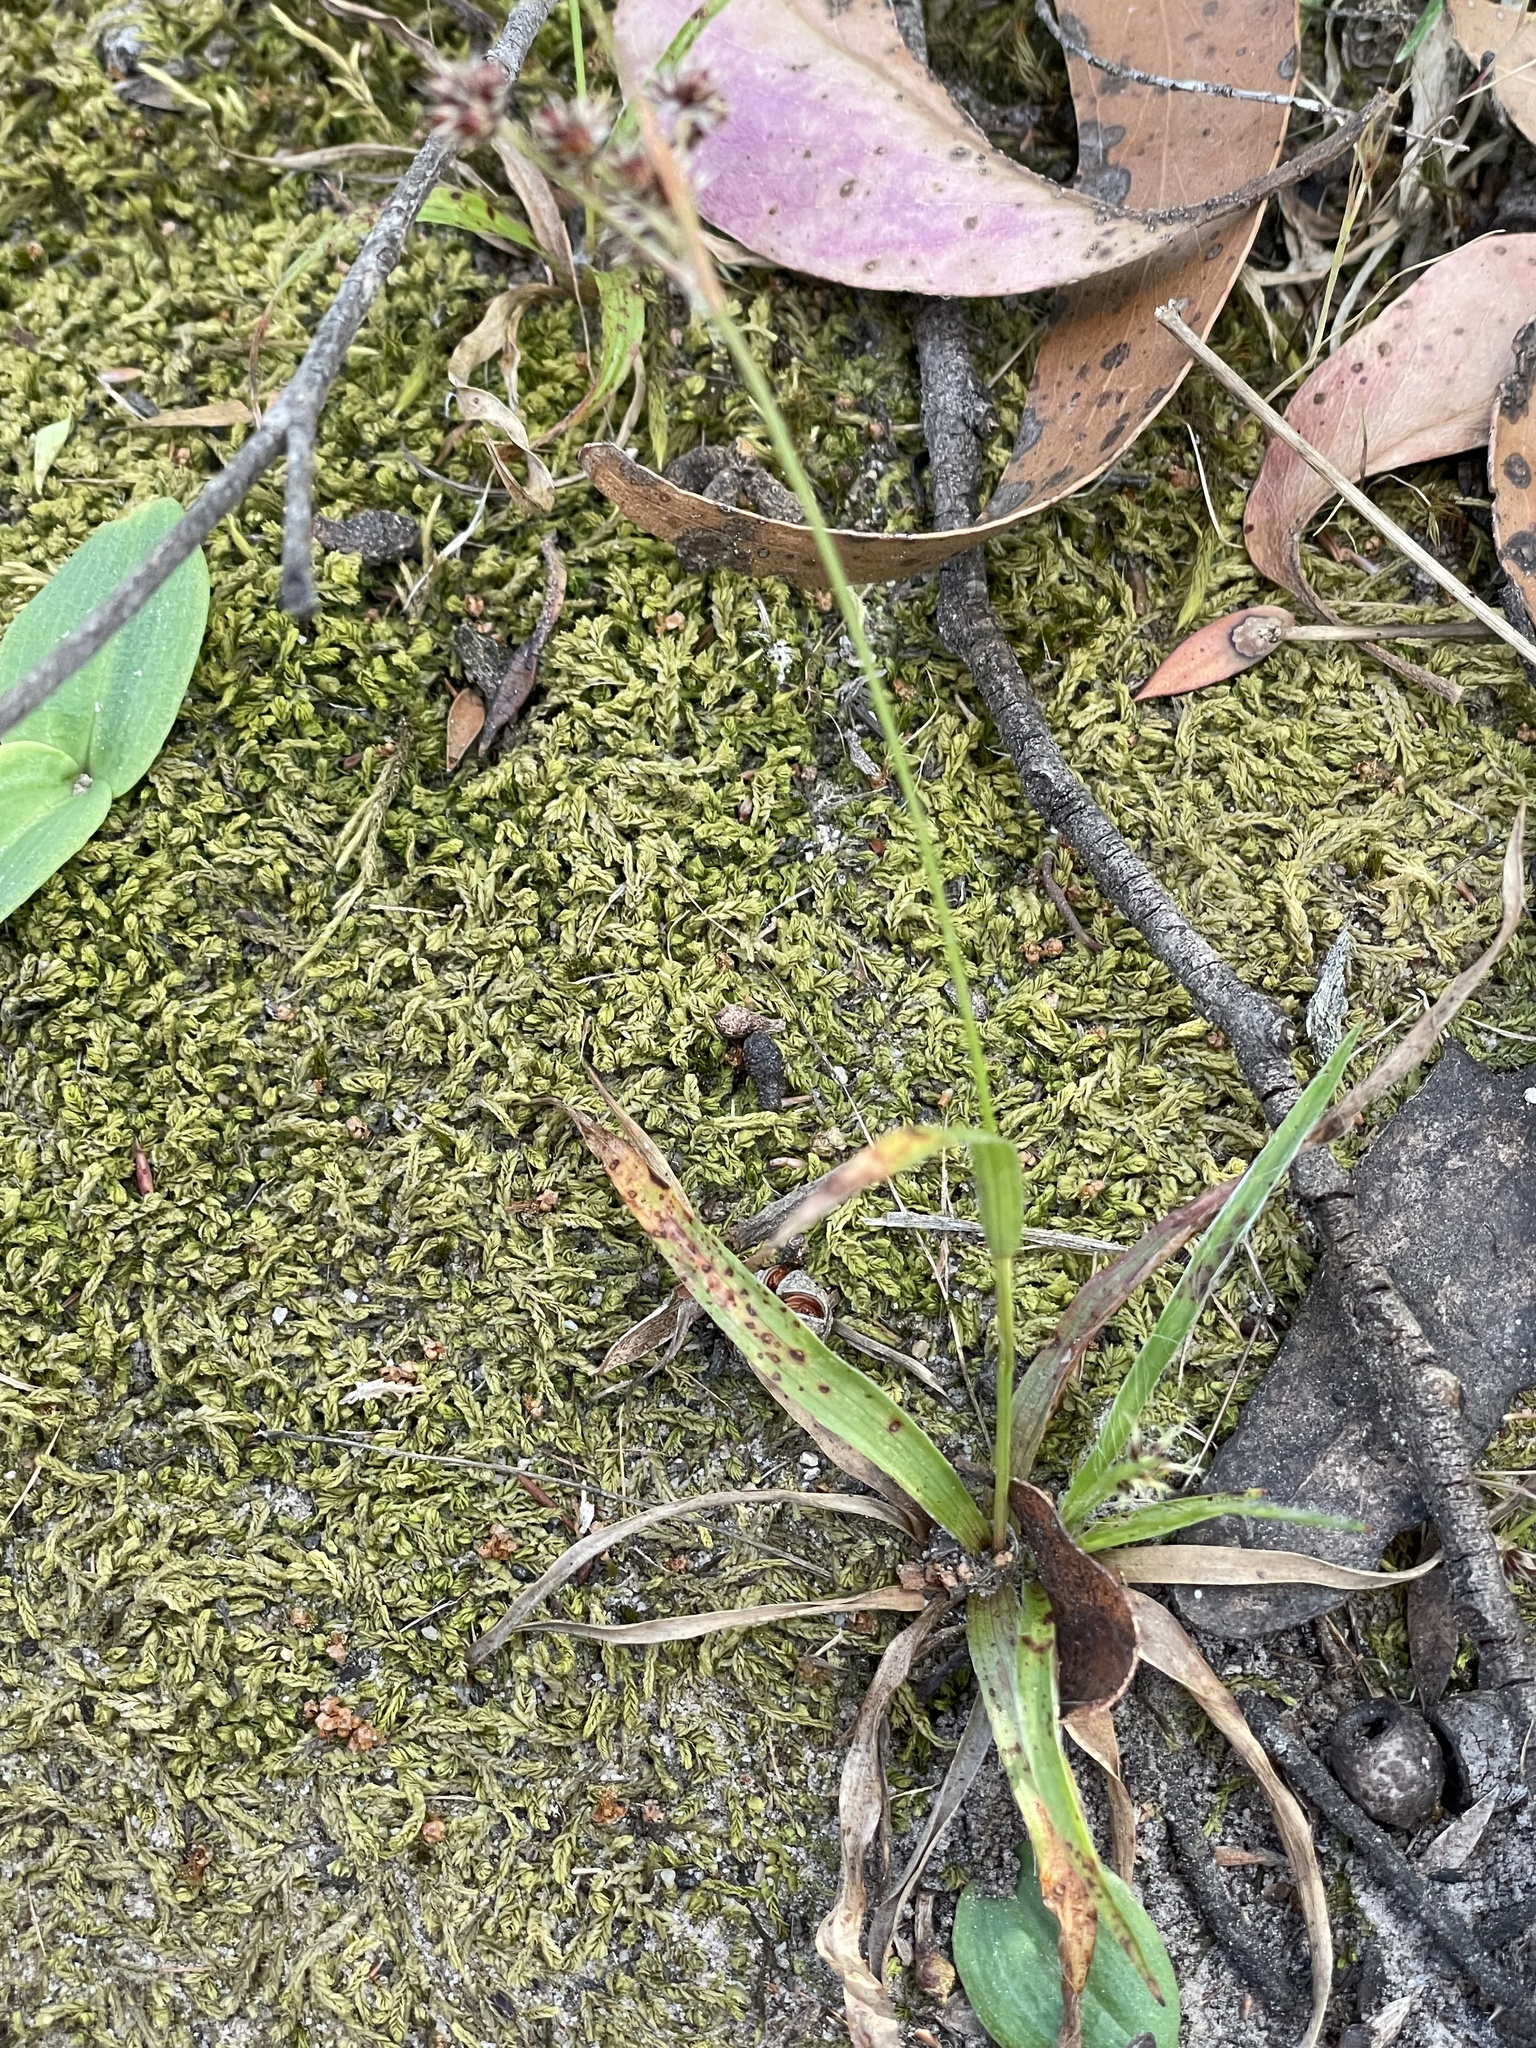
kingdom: Plantae
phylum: Tracheophyta
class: Liliopsida
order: Poales
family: Juncaceae
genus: Luzula
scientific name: Luzula meridionalis
